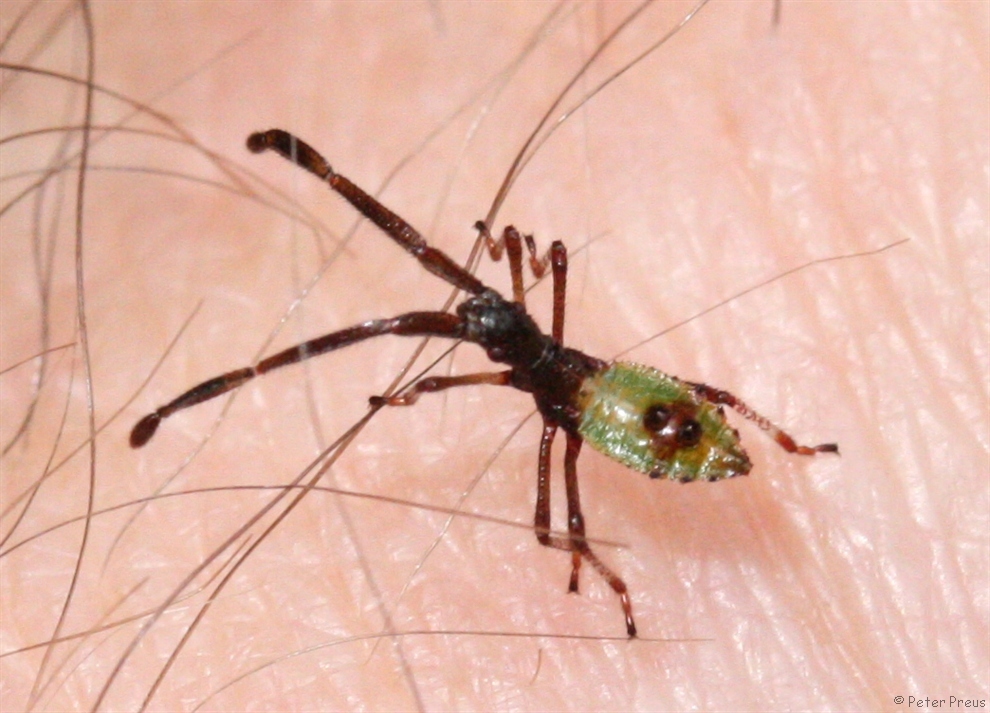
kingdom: Animalia
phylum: Arthropoda
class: Insecta
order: Hemiptera
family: Coreidae
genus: Gonocerus
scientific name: Gonocerus acuteangulatus
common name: Box bug
